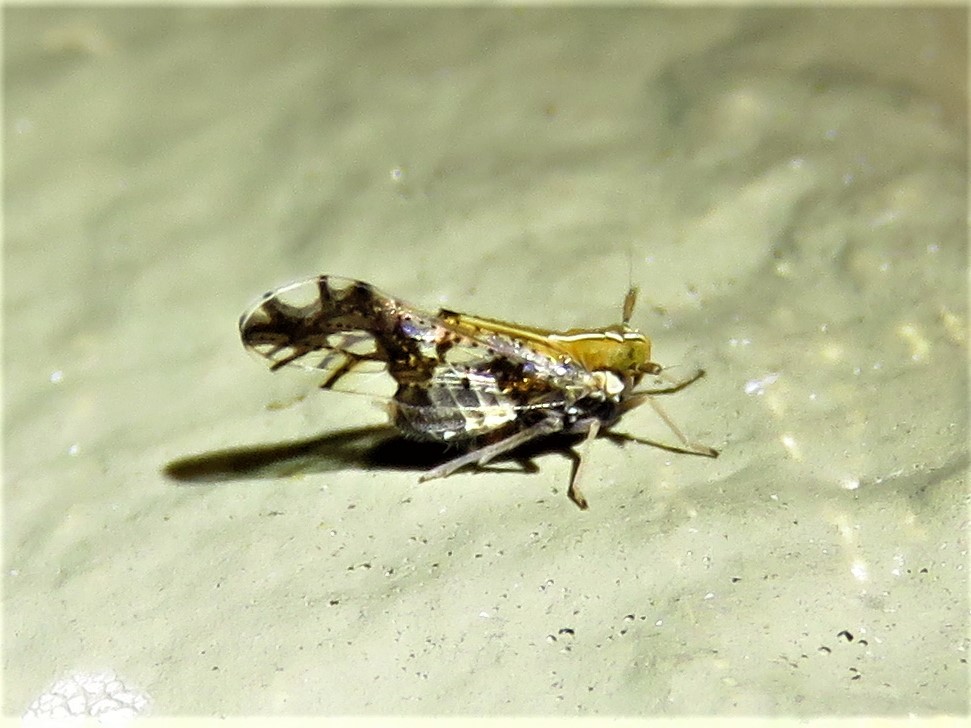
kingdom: Animalia
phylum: Arthropoda
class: Insecta
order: Hemiptera
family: Delphacidae
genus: Liburniella
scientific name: Liburniella ornata
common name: Ornate planthopper
